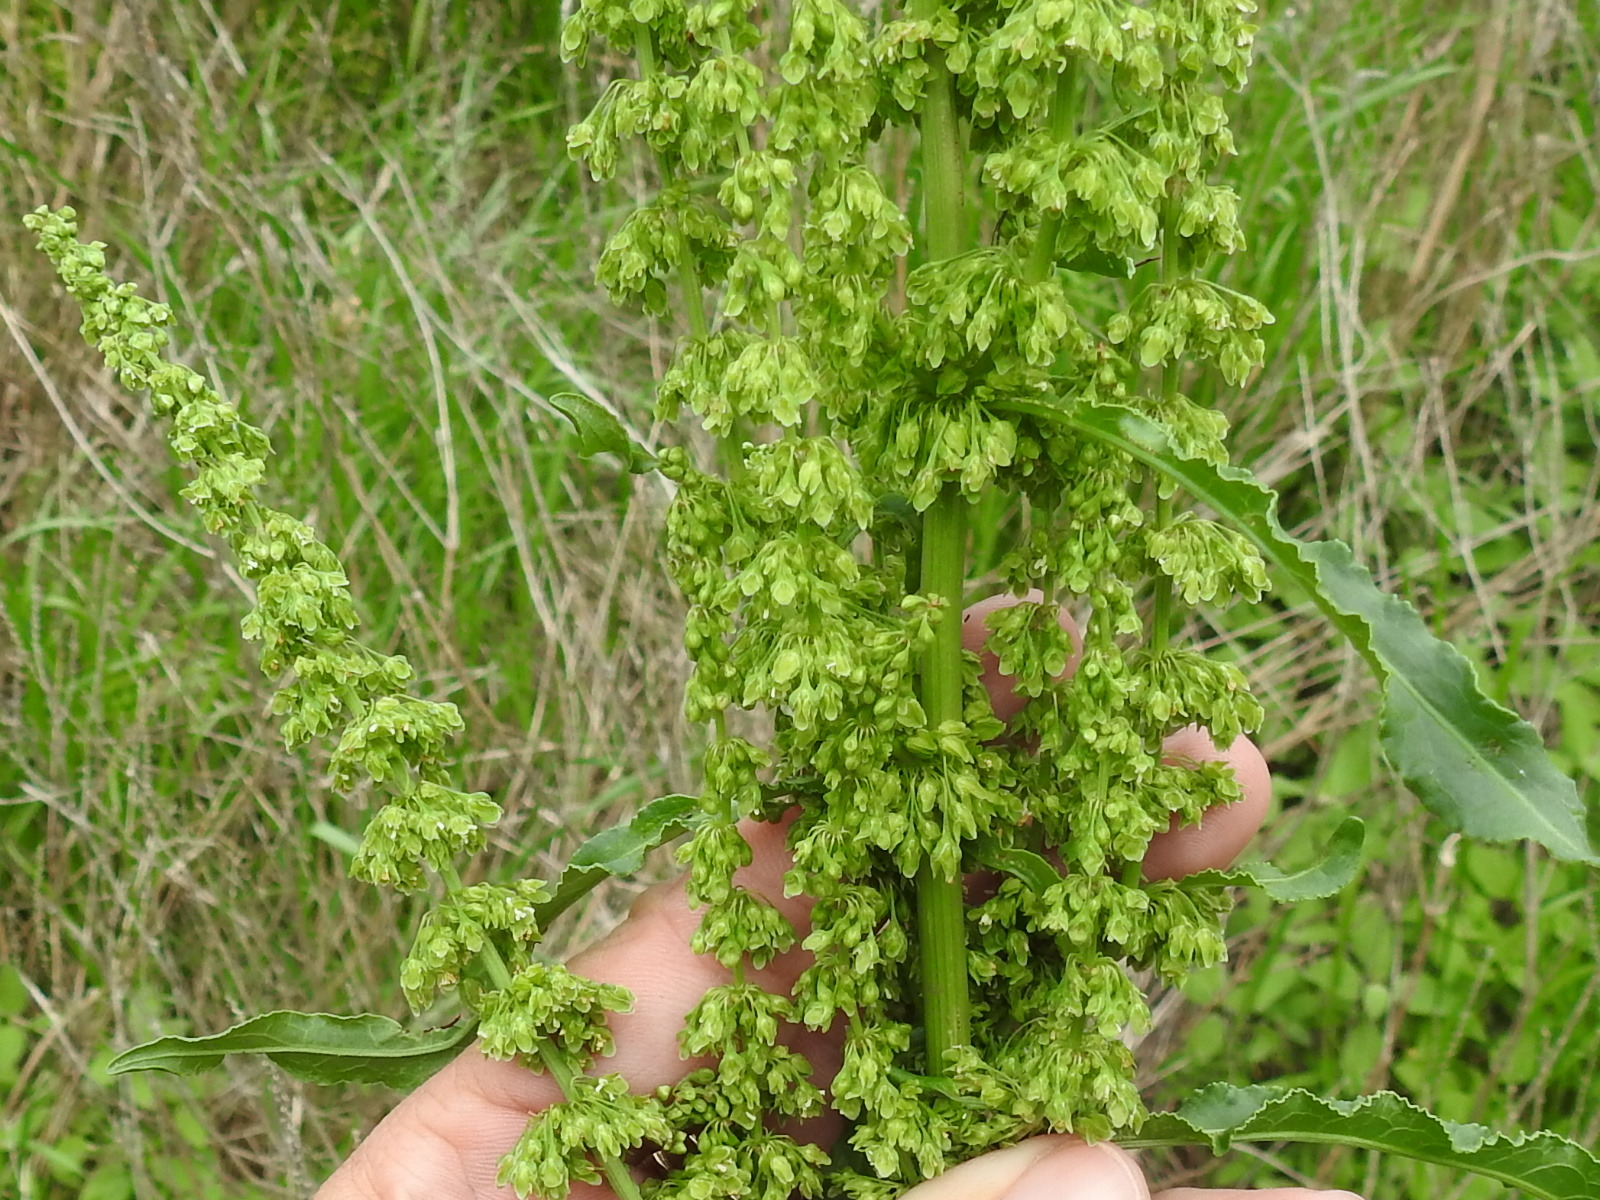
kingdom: Plantae
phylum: Tracheophyta
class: Magnoliopsida
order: Caryophyllales
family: Polygonaceae
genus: Rumex
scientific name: Rumex crispus
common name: Curled dock
